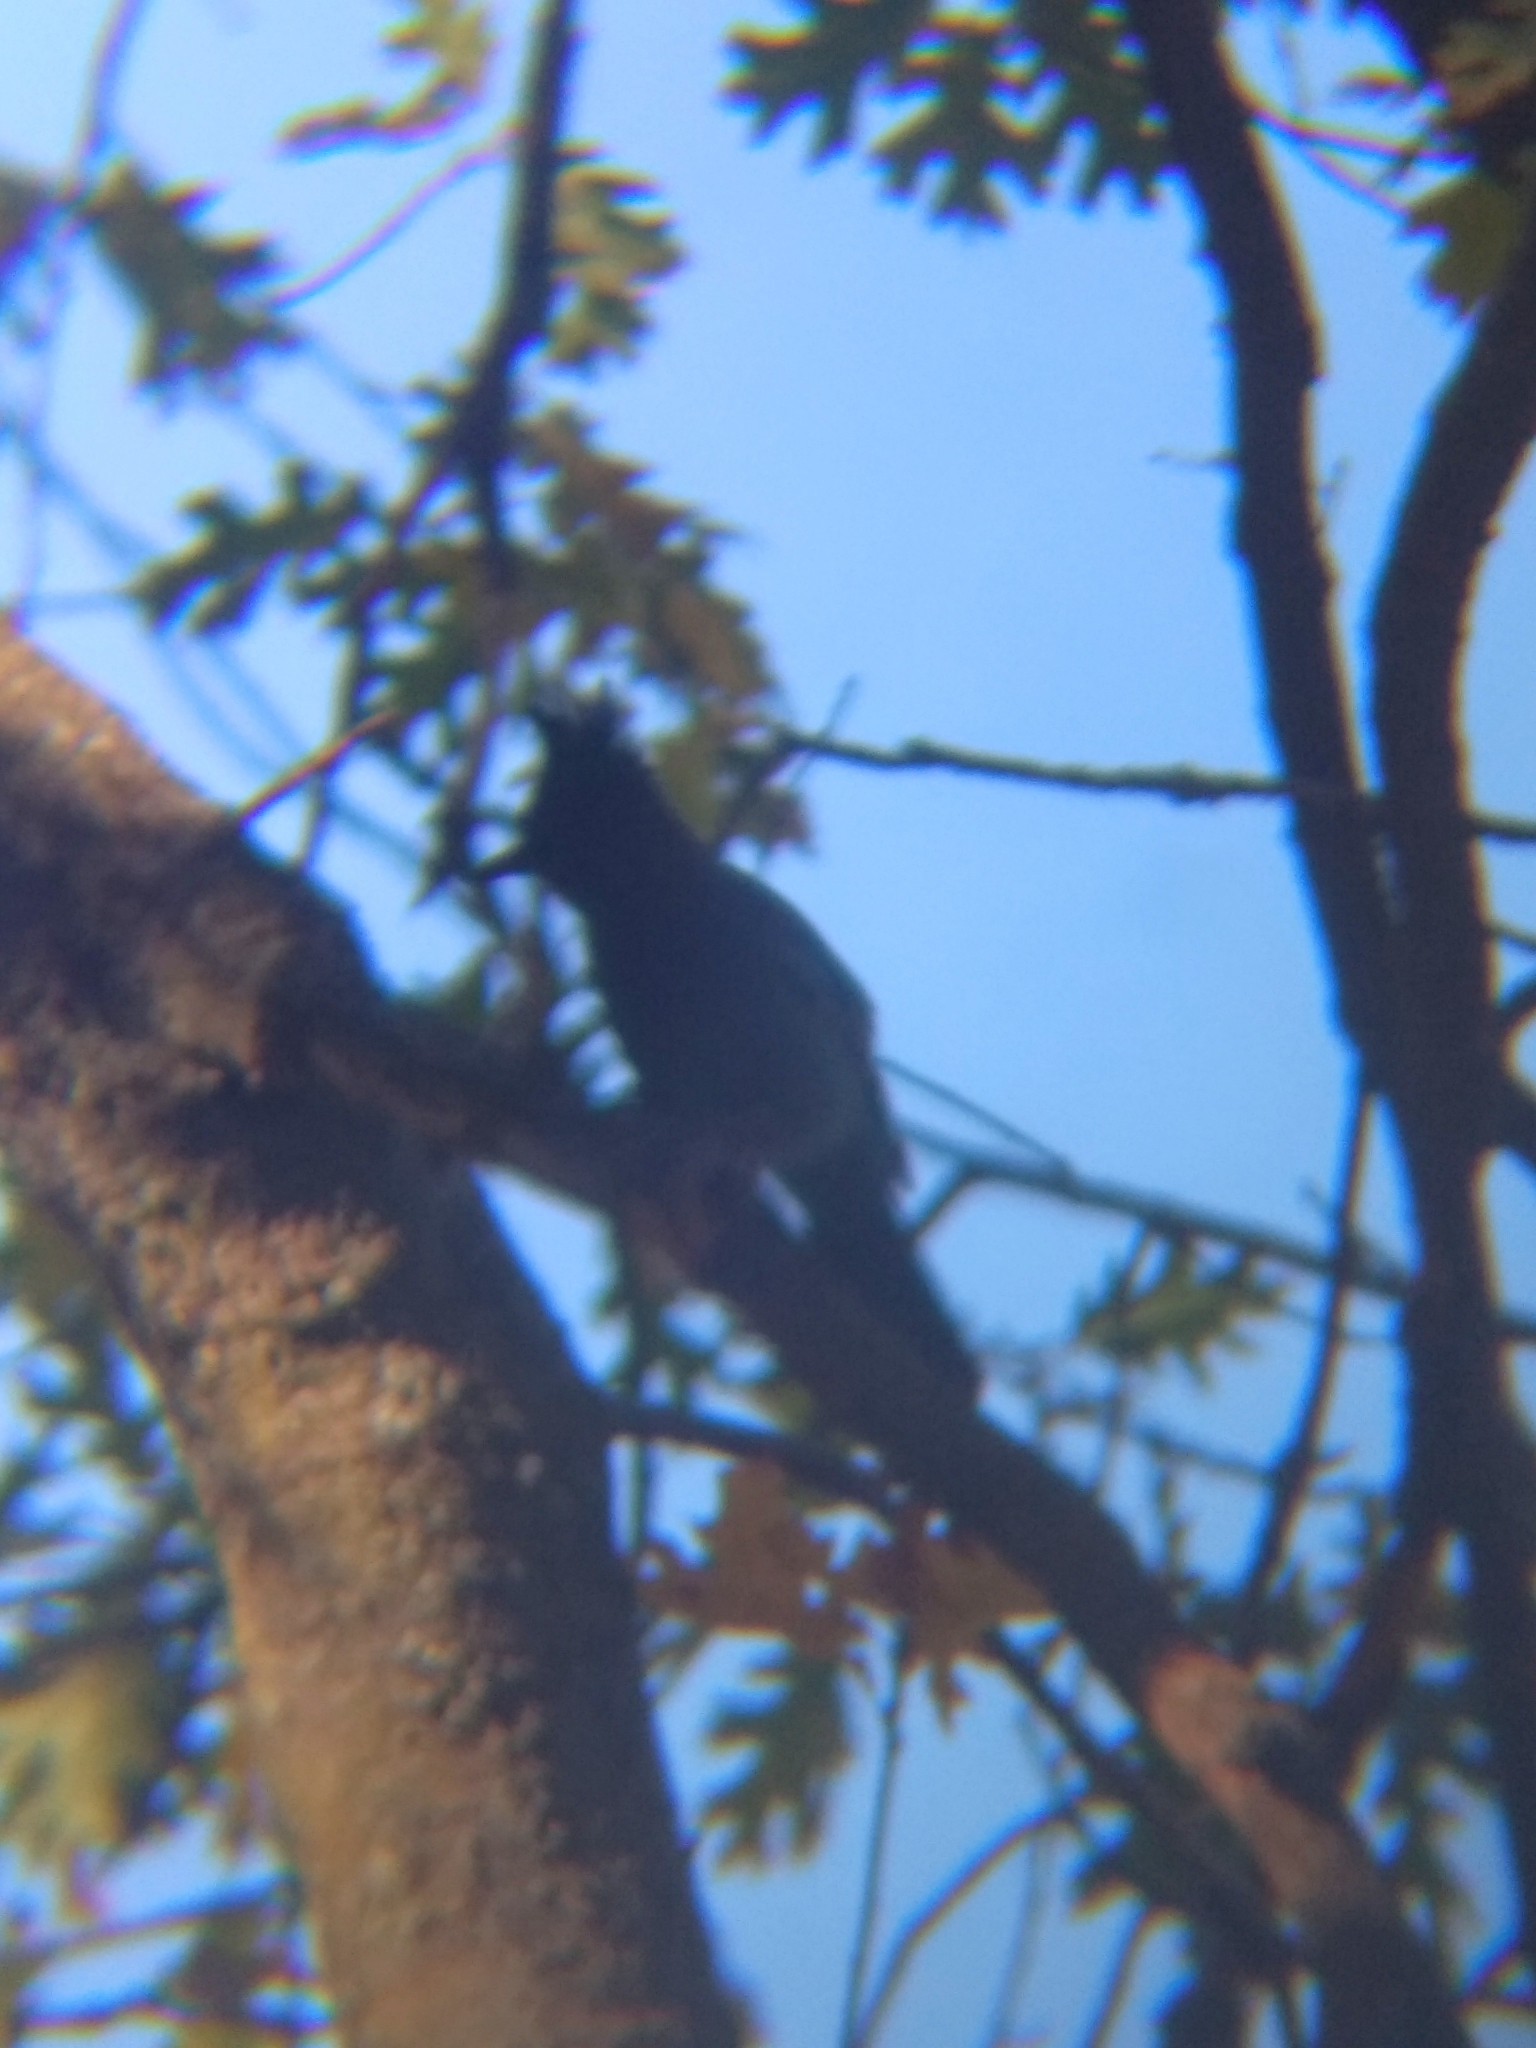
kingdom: Animalia
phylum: Chordata
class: Aves
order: Passeriformes
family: Corvidae
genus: Cyanocitta
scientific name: Cyanocitta stelleri
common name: Steller's jay
